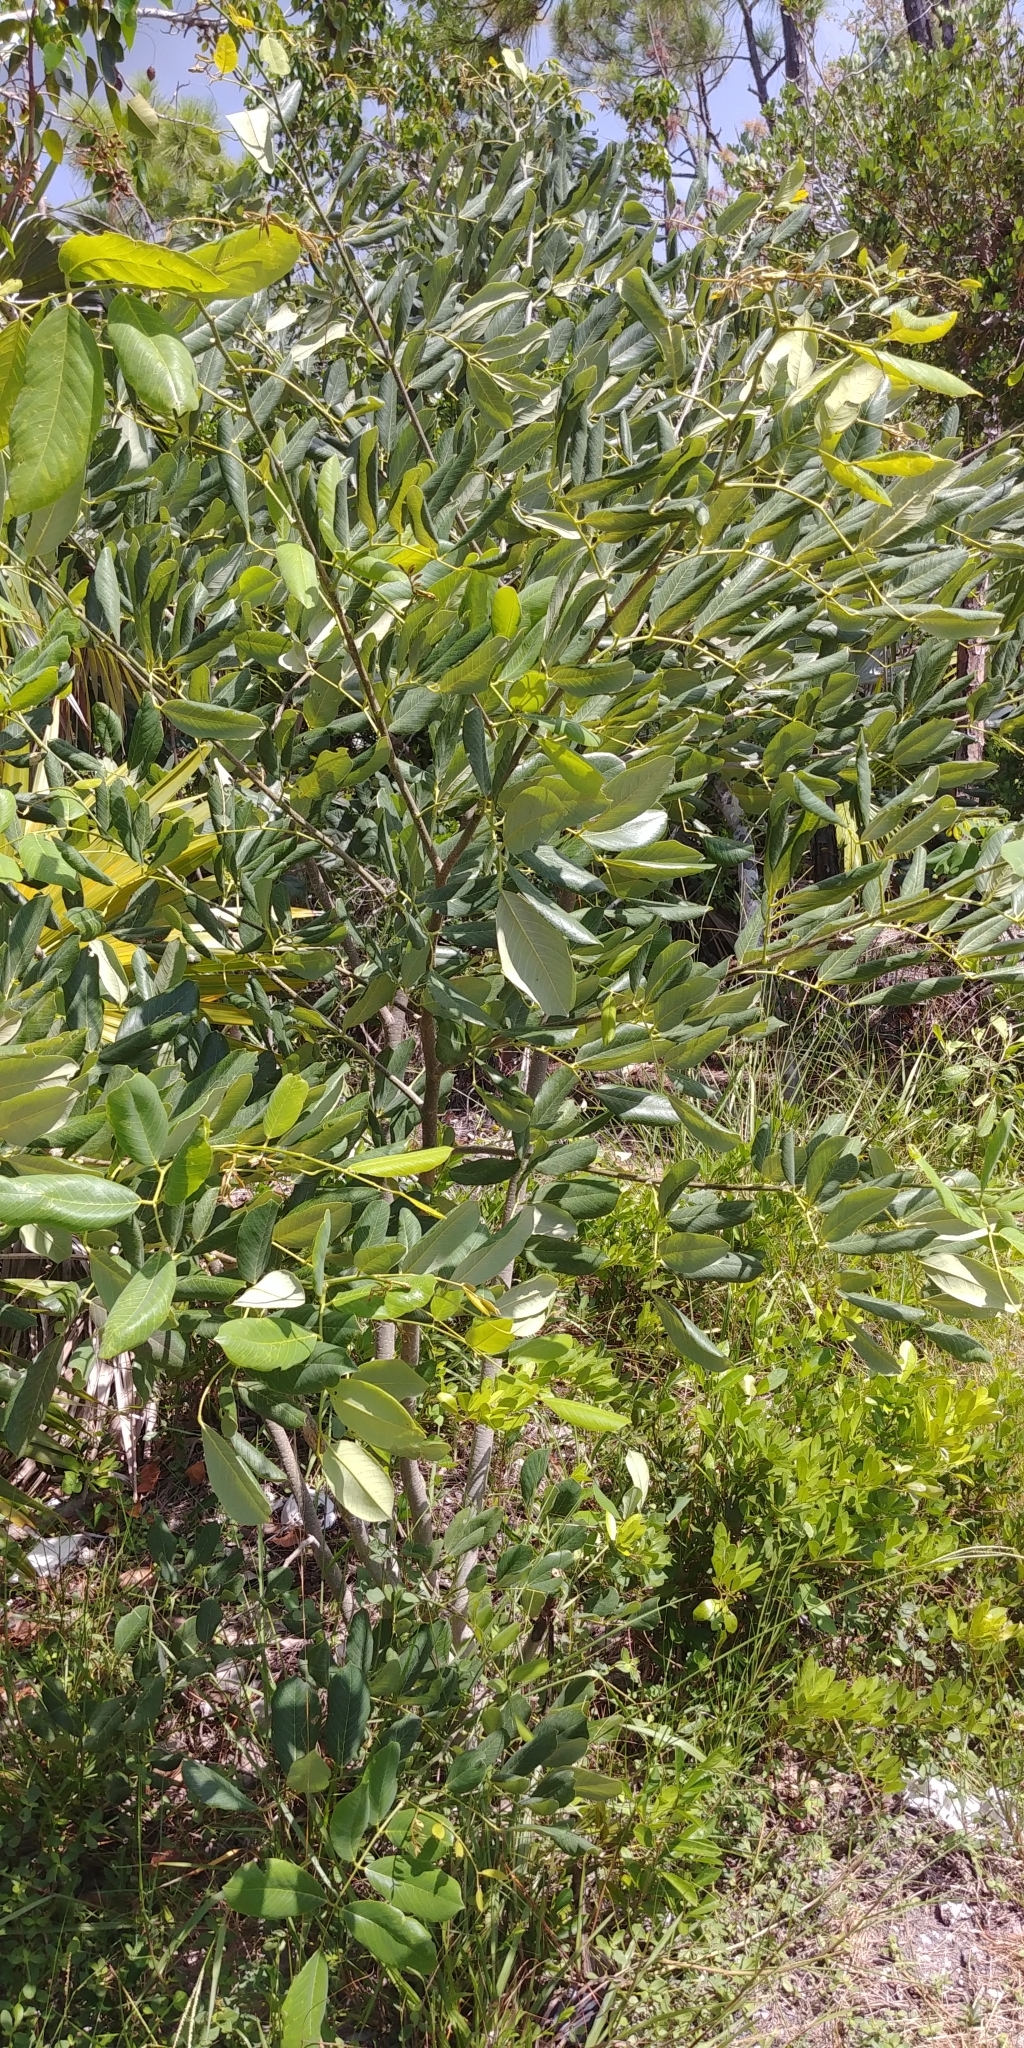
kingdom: Plantae
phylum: Tracheophyta
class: Magnoliopsida
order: Fabales
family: Fabaceae
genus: Piscidia
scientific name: Piscidia piscipula
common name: Florida fishpoison tree
